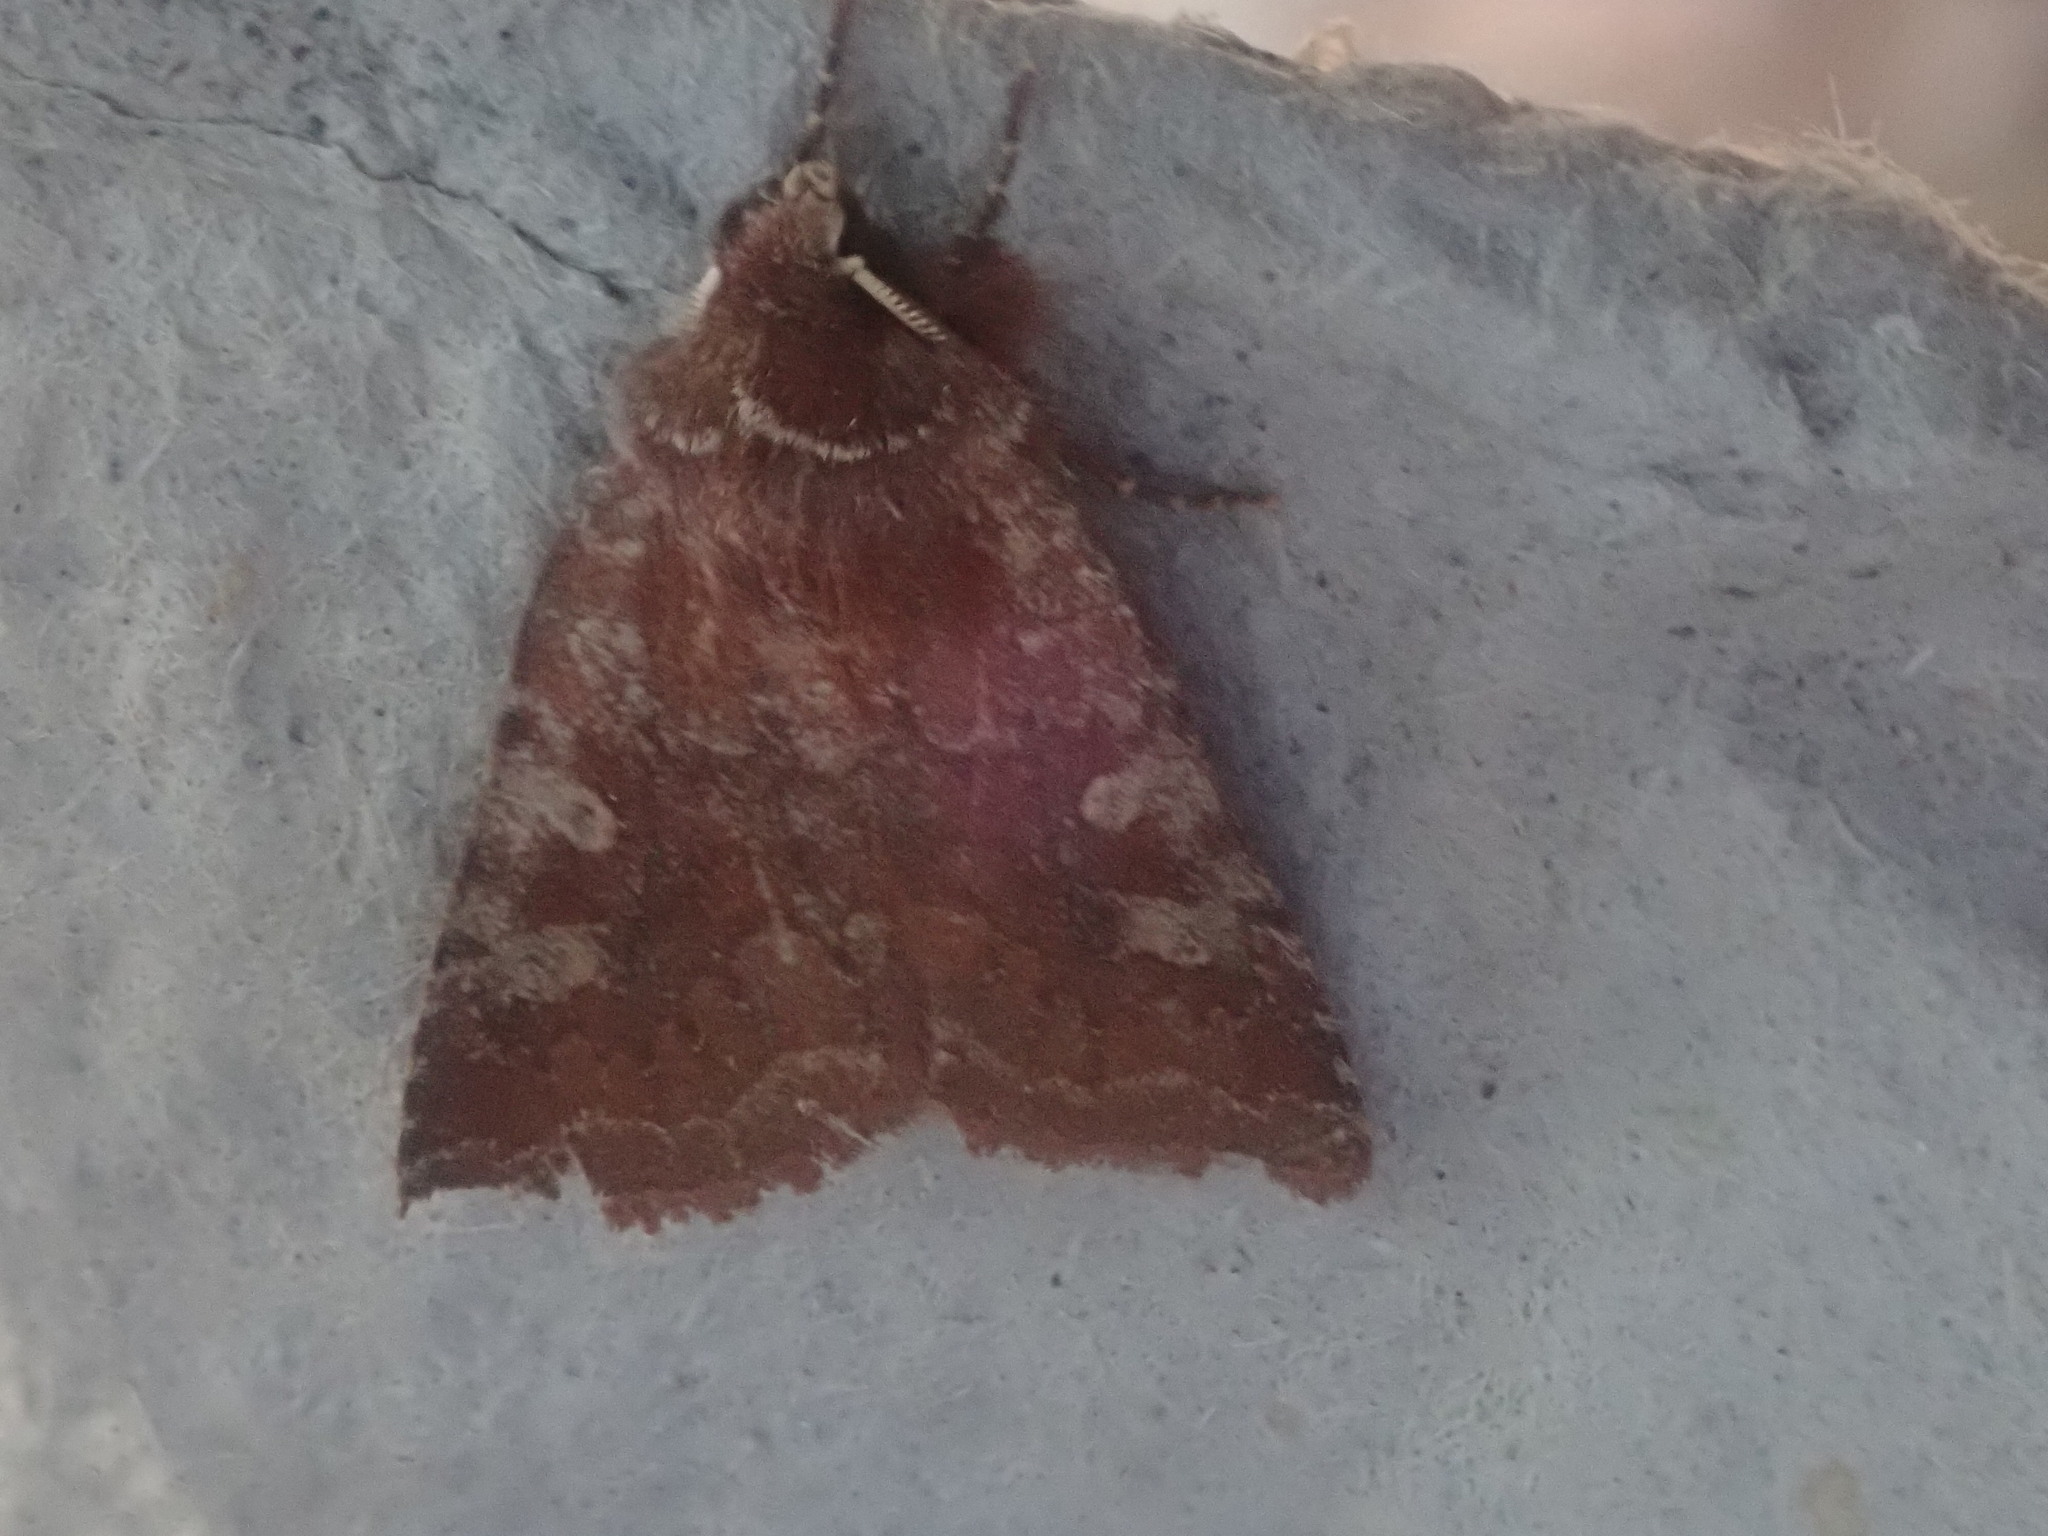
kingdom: Animalia
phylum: Arthropoda
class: Insecta
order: Lepidoptera
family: Noctuidae
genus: Cerastis
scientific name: Cerastis tenebrifera
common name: Reddish speckled dart
